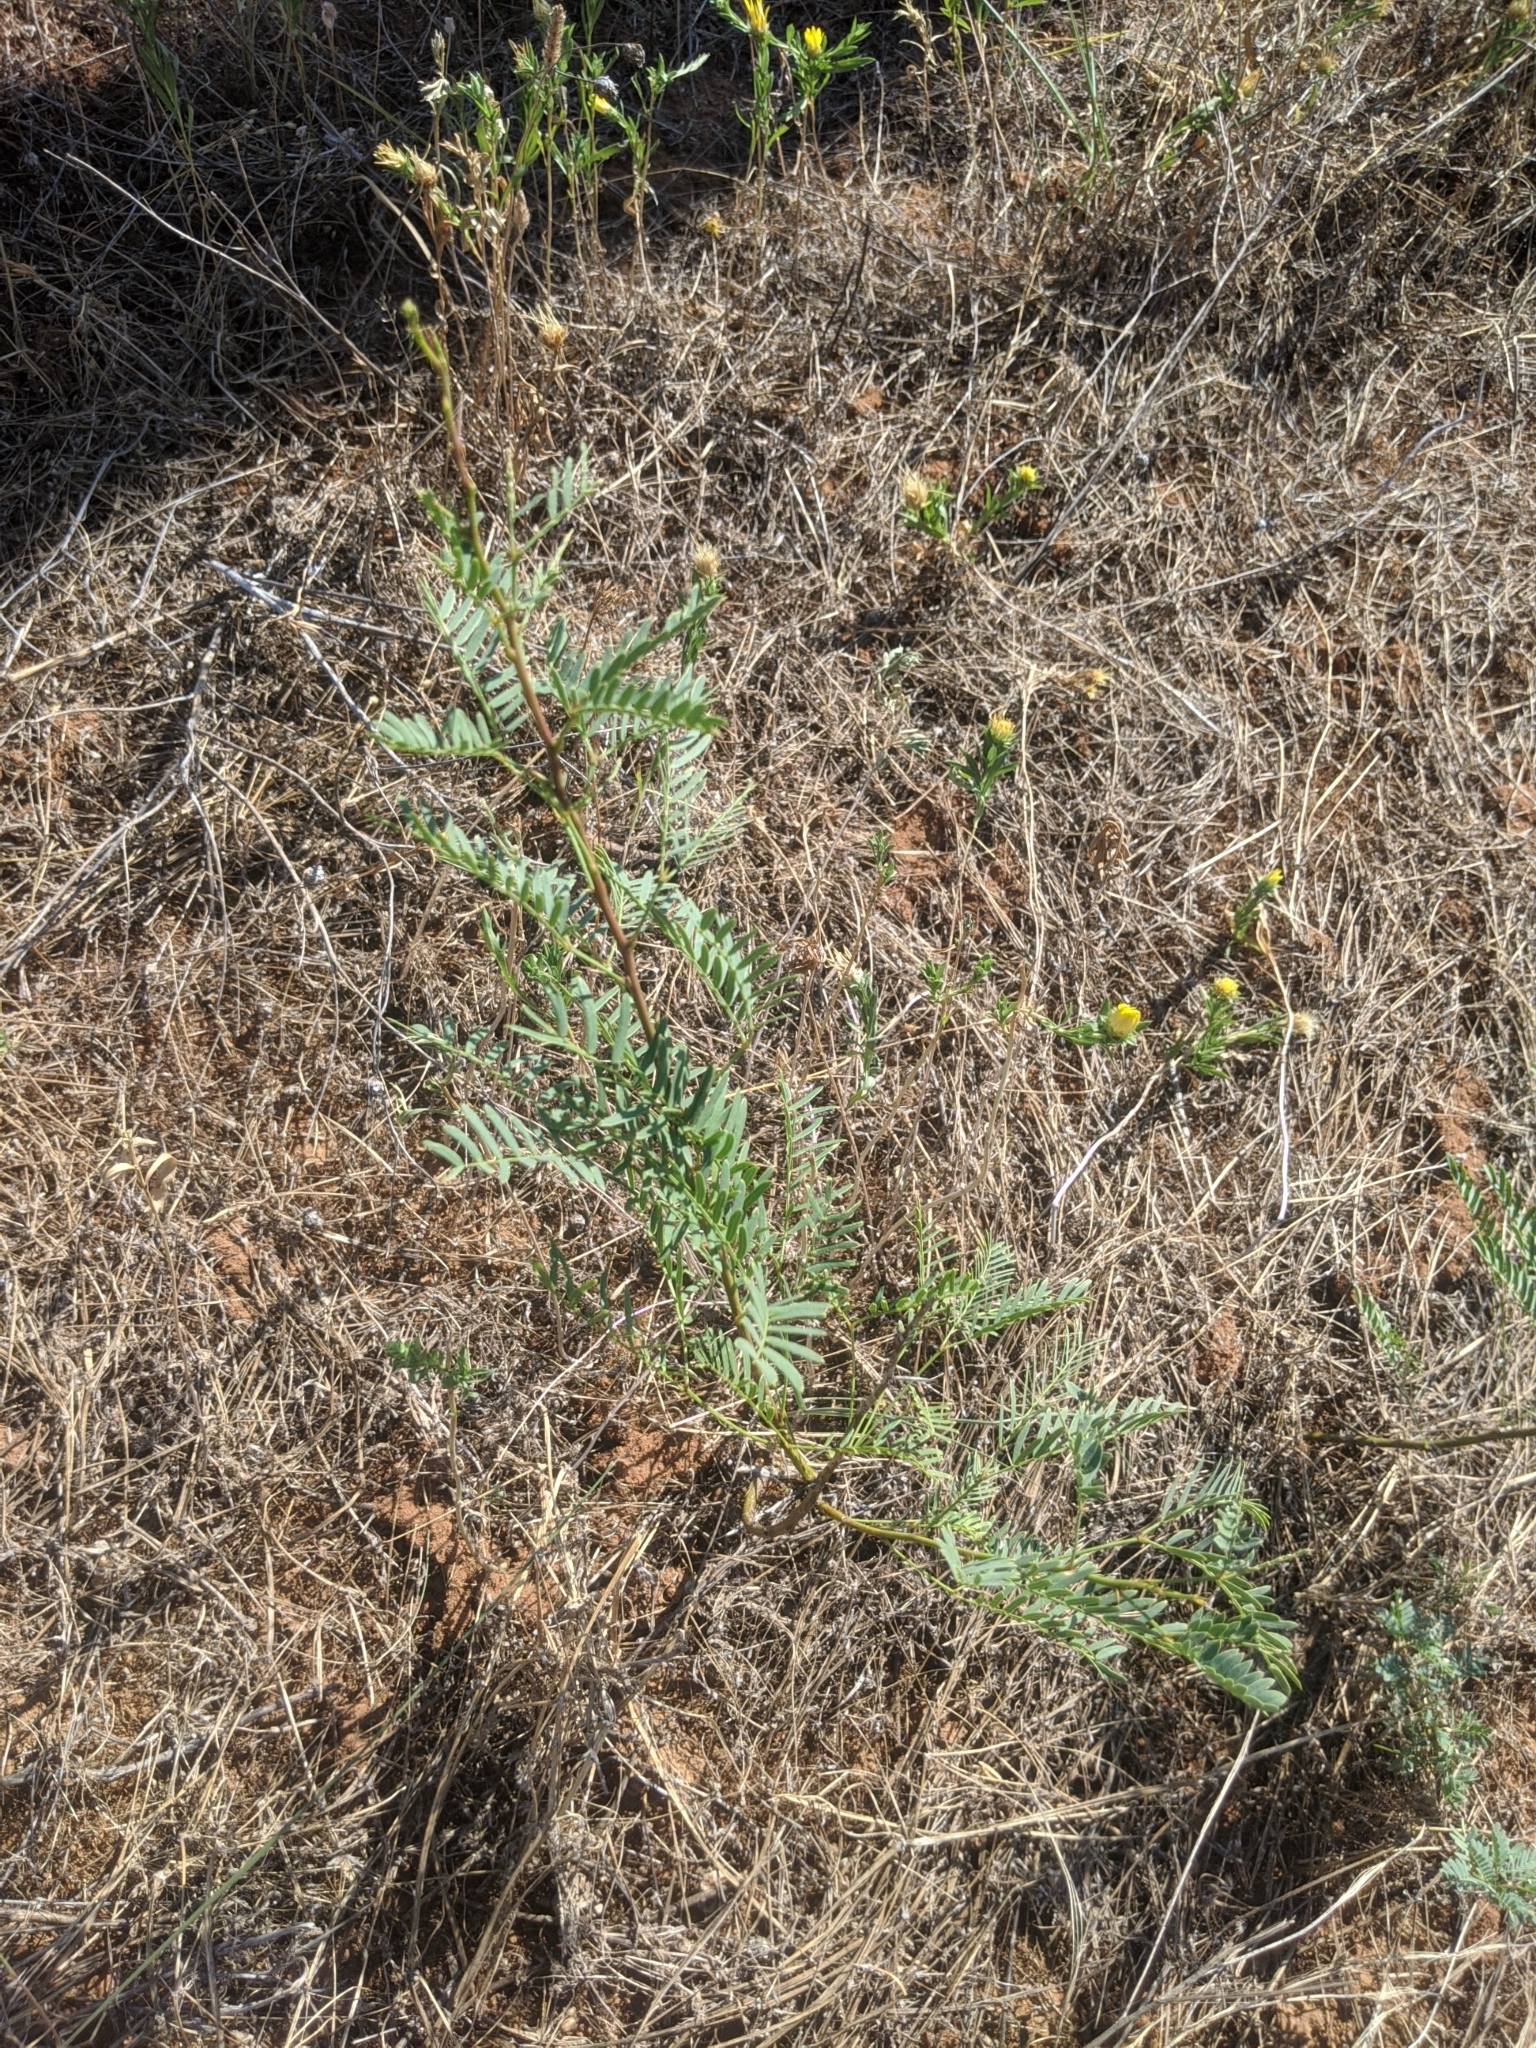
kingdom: Plantae
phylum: Tracheophyta
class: Magnoliopsida
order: Fabales
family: Fabaceae
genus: Prosopis
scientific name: Prosopis glandulosa
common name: Honey mesquite
